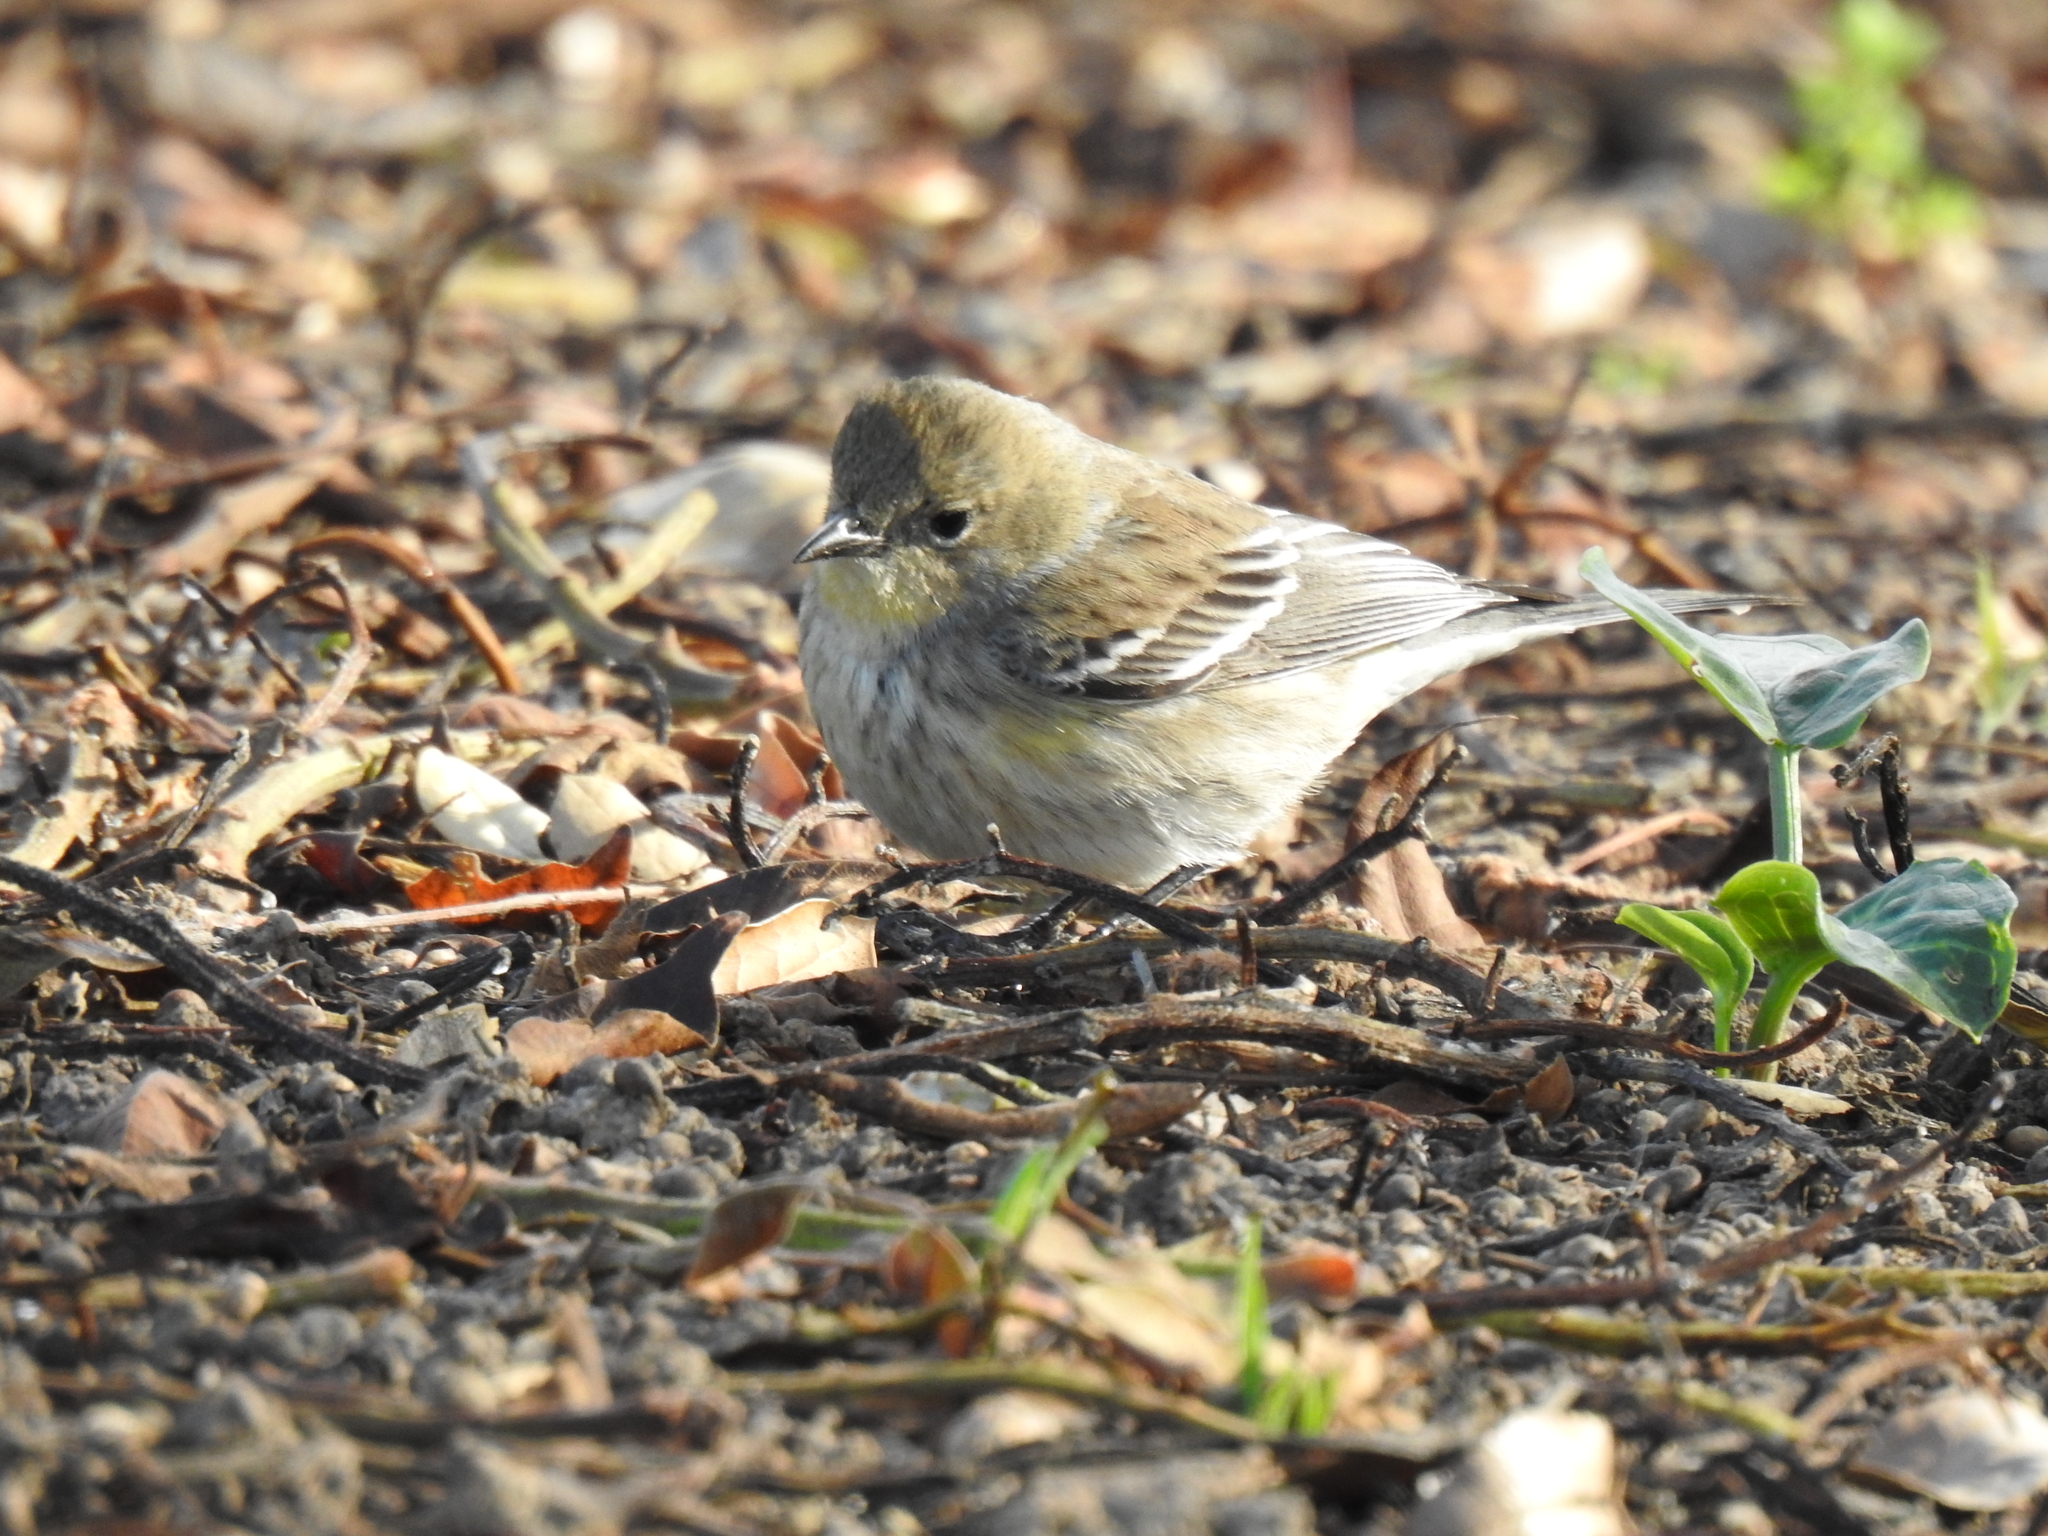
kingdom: Animalia
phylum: Chordata
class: Aves
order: Passeriformes
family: Parulidae
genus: Setophaga
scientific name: Setophaga coronata
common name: Myrtle warbler
